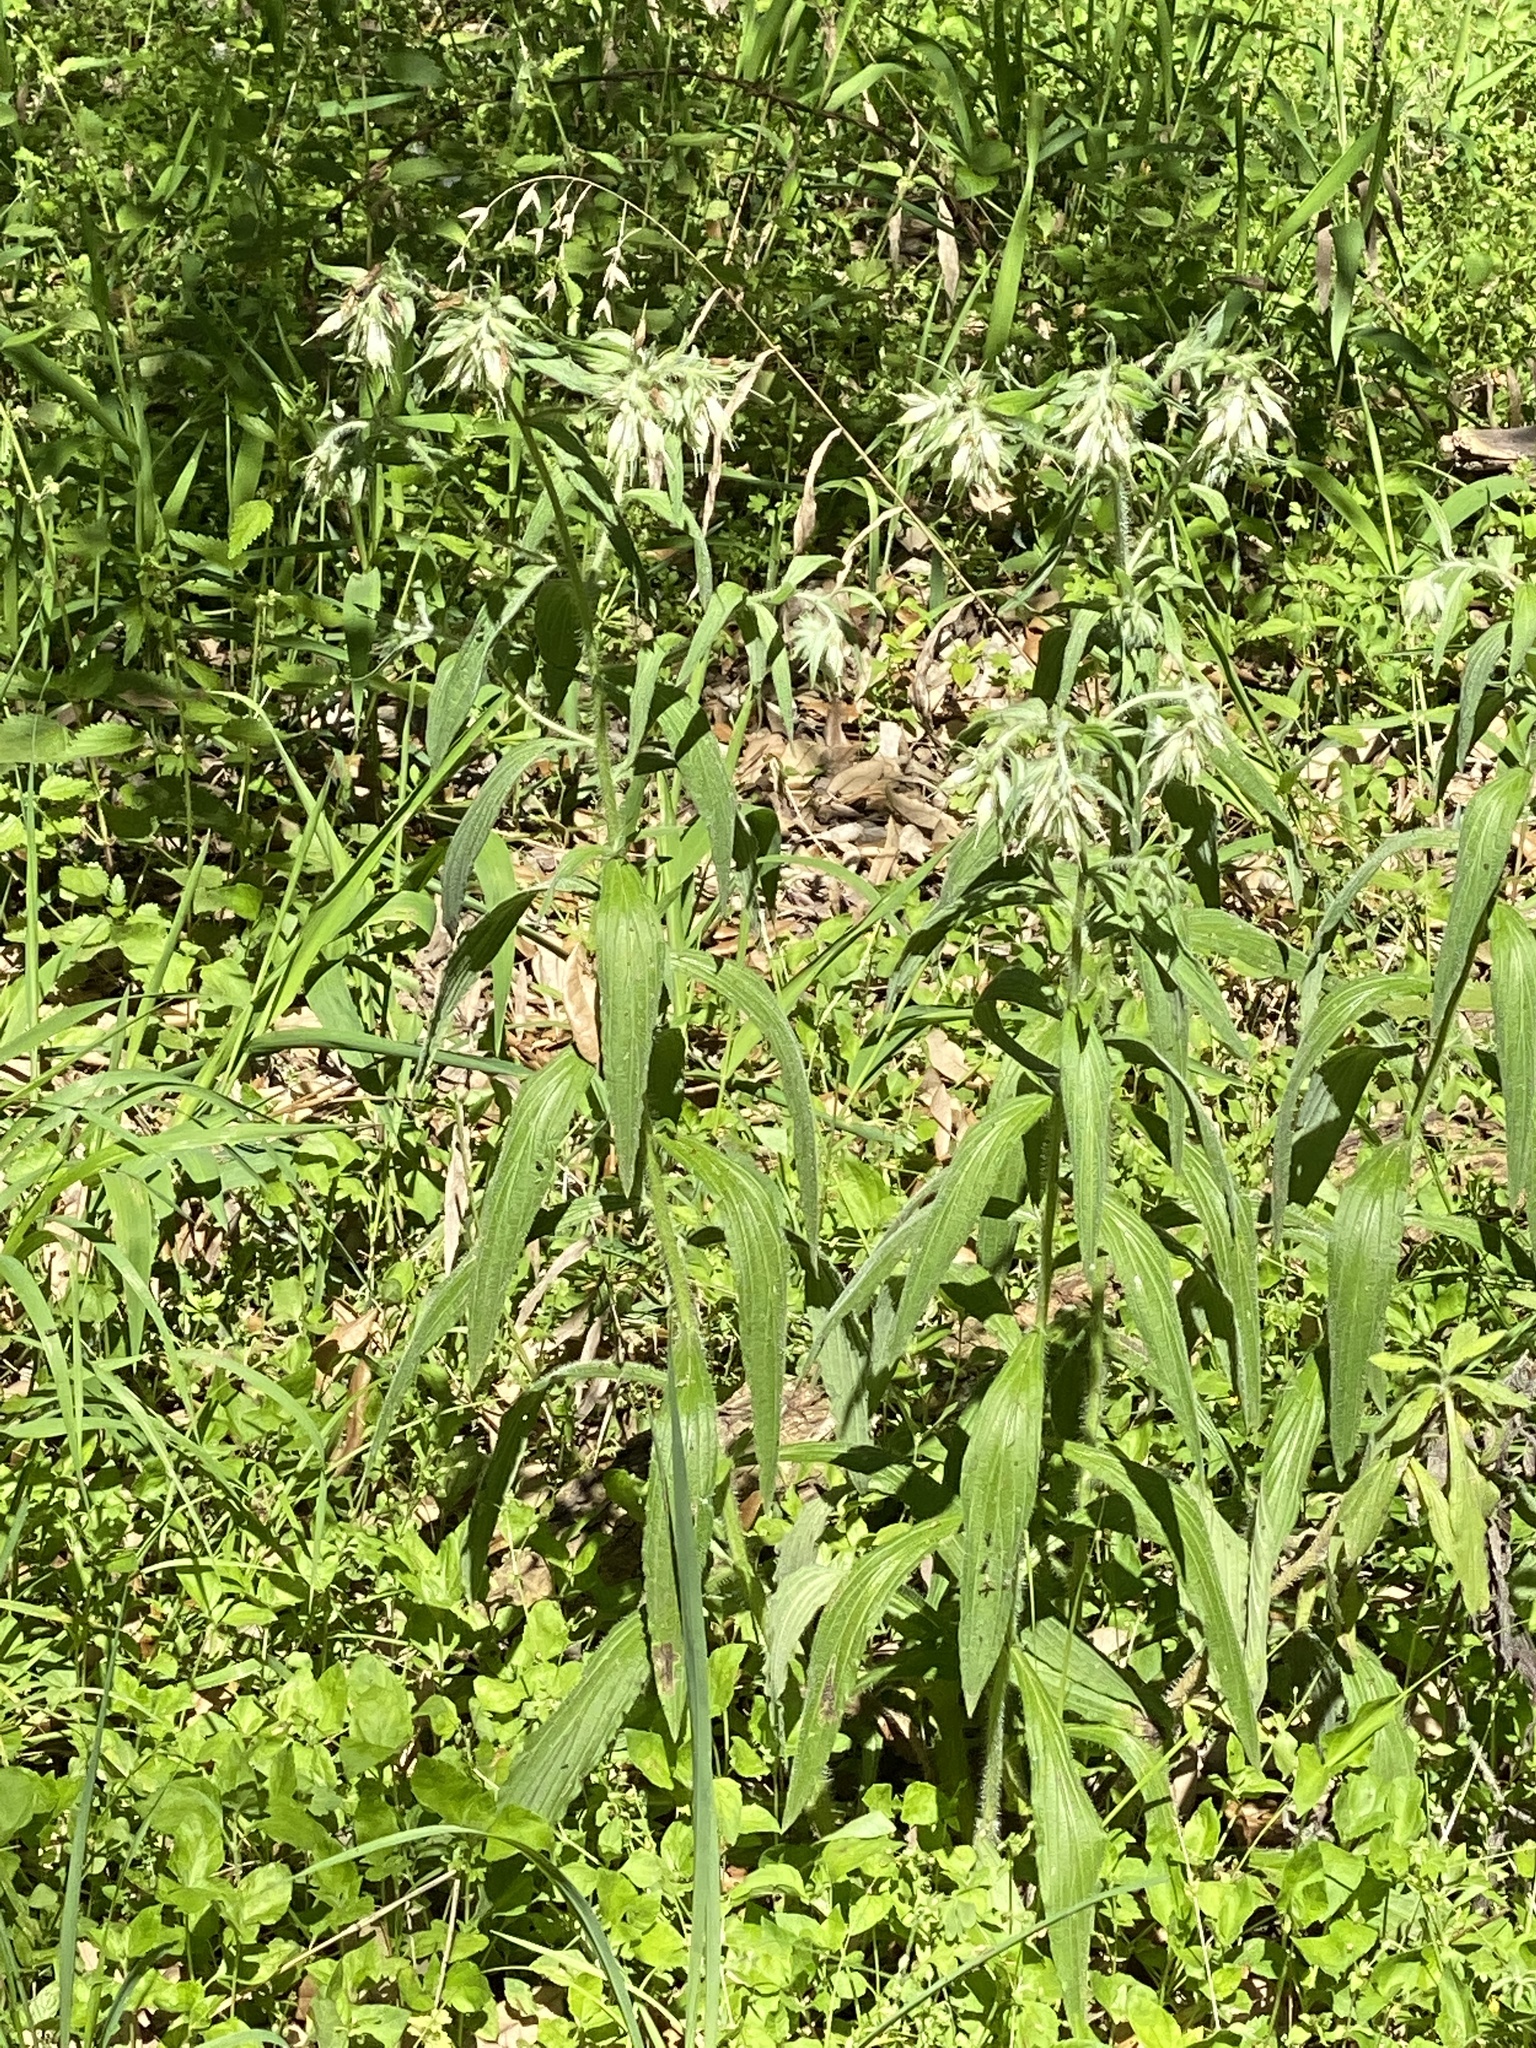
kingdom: Plantae
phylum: Tracheophyta
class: Magnoliopsida
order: Boraginales
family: Boraginaceae
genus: Lithospermum
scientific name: Lithospermum caroliniense
